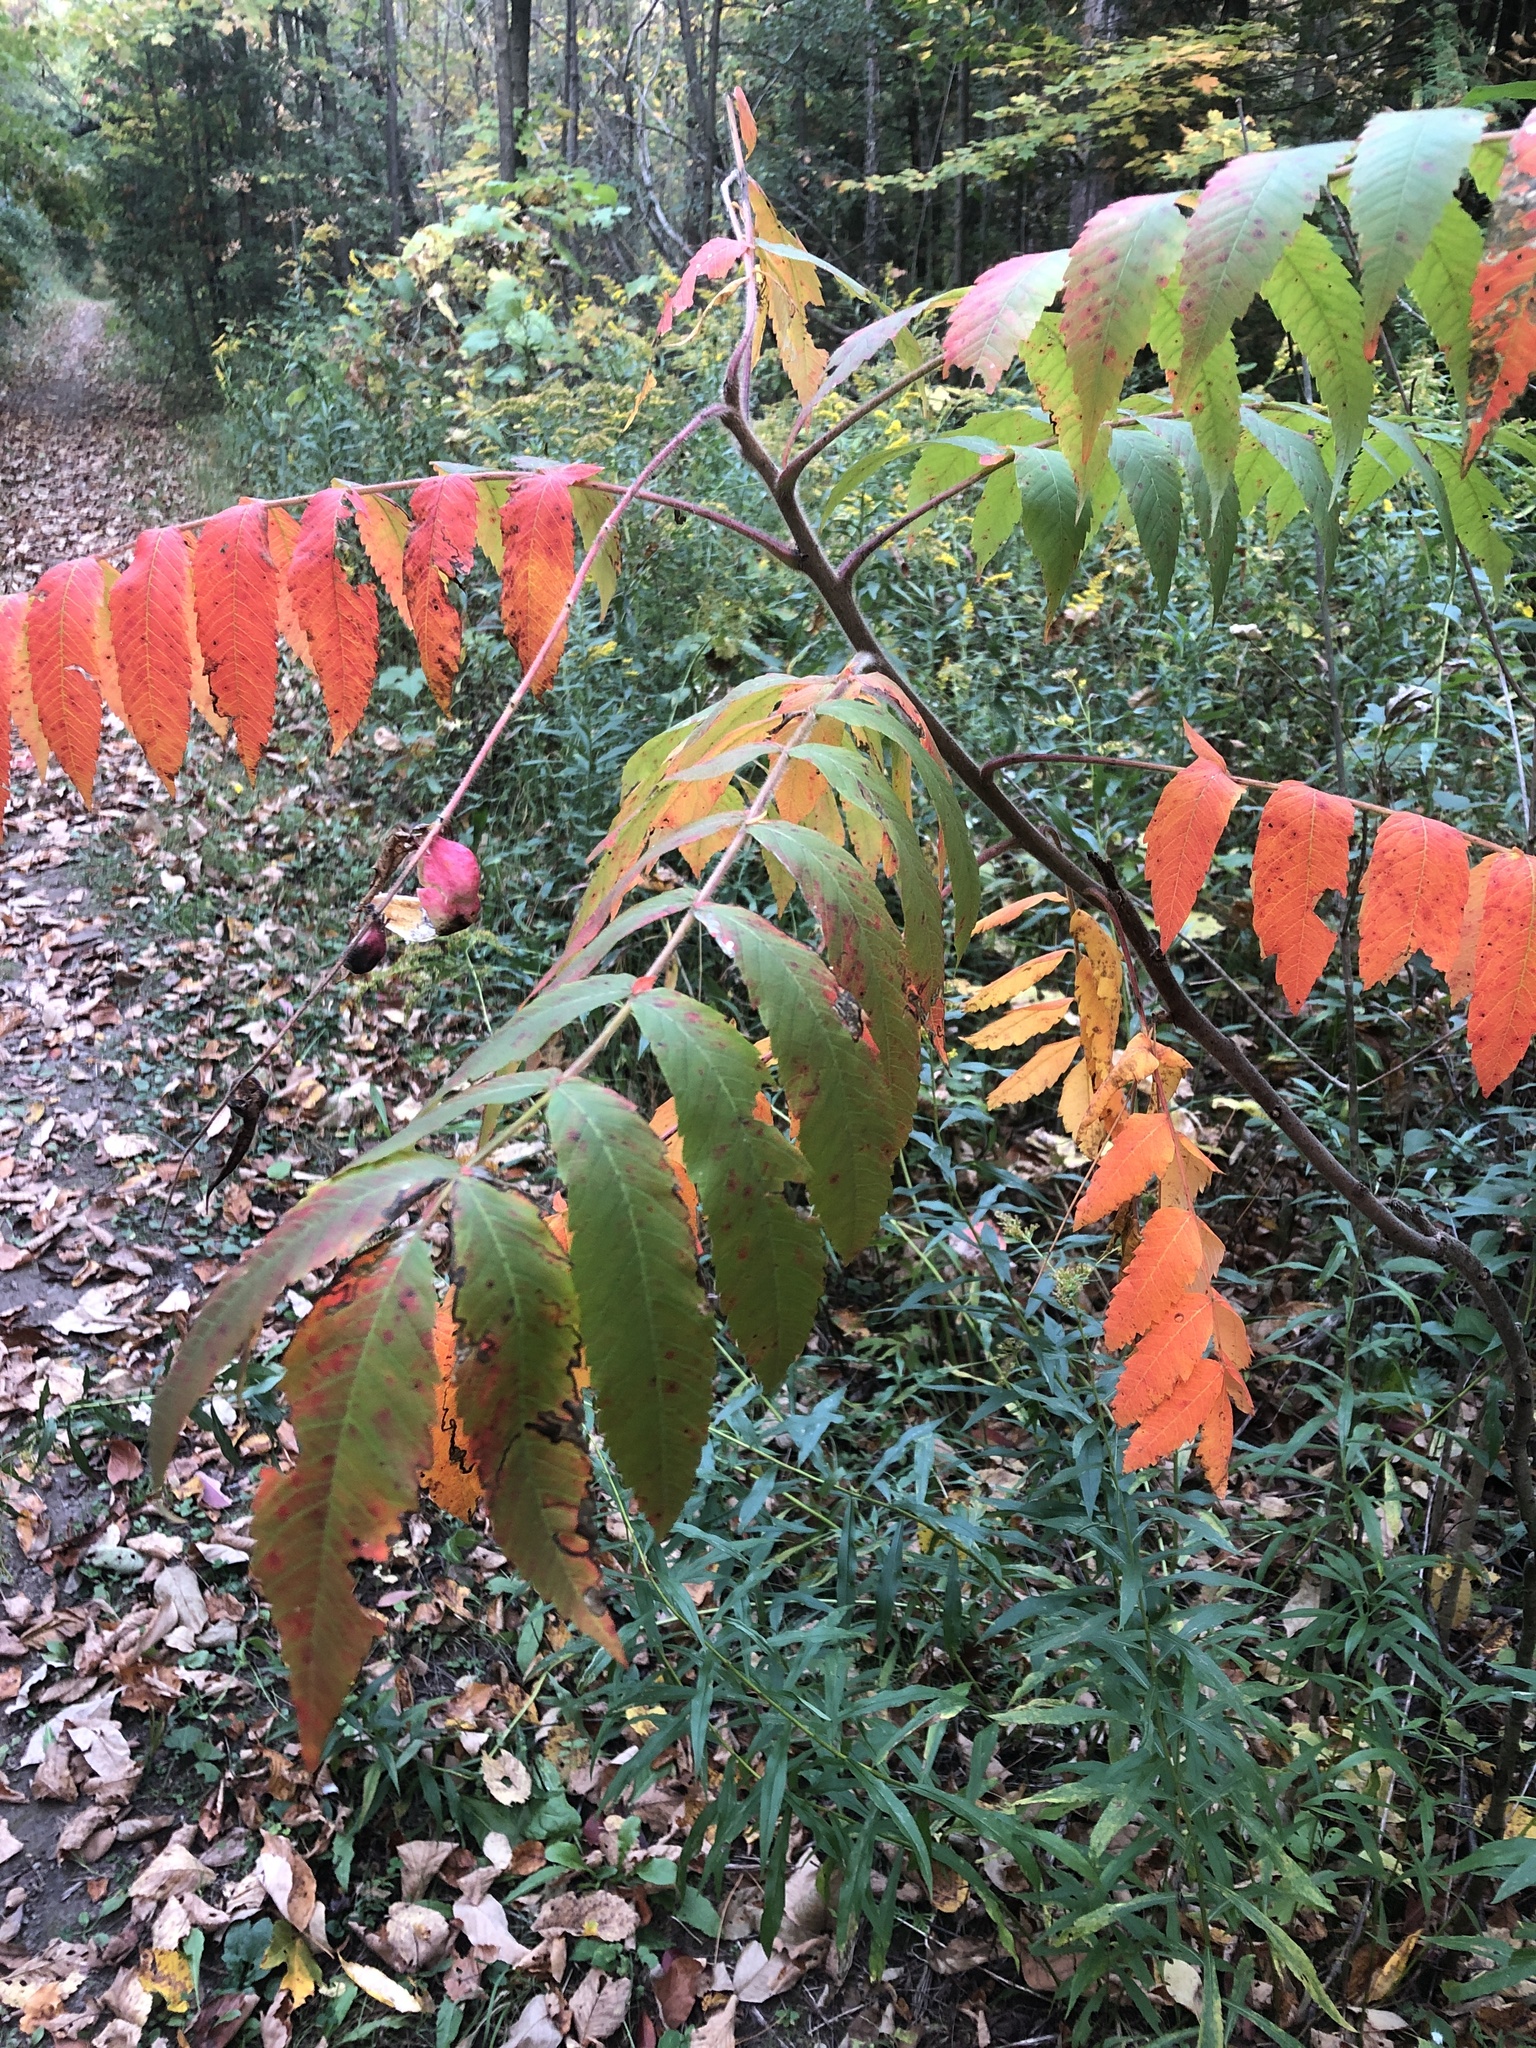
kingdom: Plantae
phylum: Tracheophyta
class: Magnoliopsida
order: Sapindales
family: Anacardiaceae
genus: Rhus
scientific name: Rhus typhina
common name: Staghorn sumac
